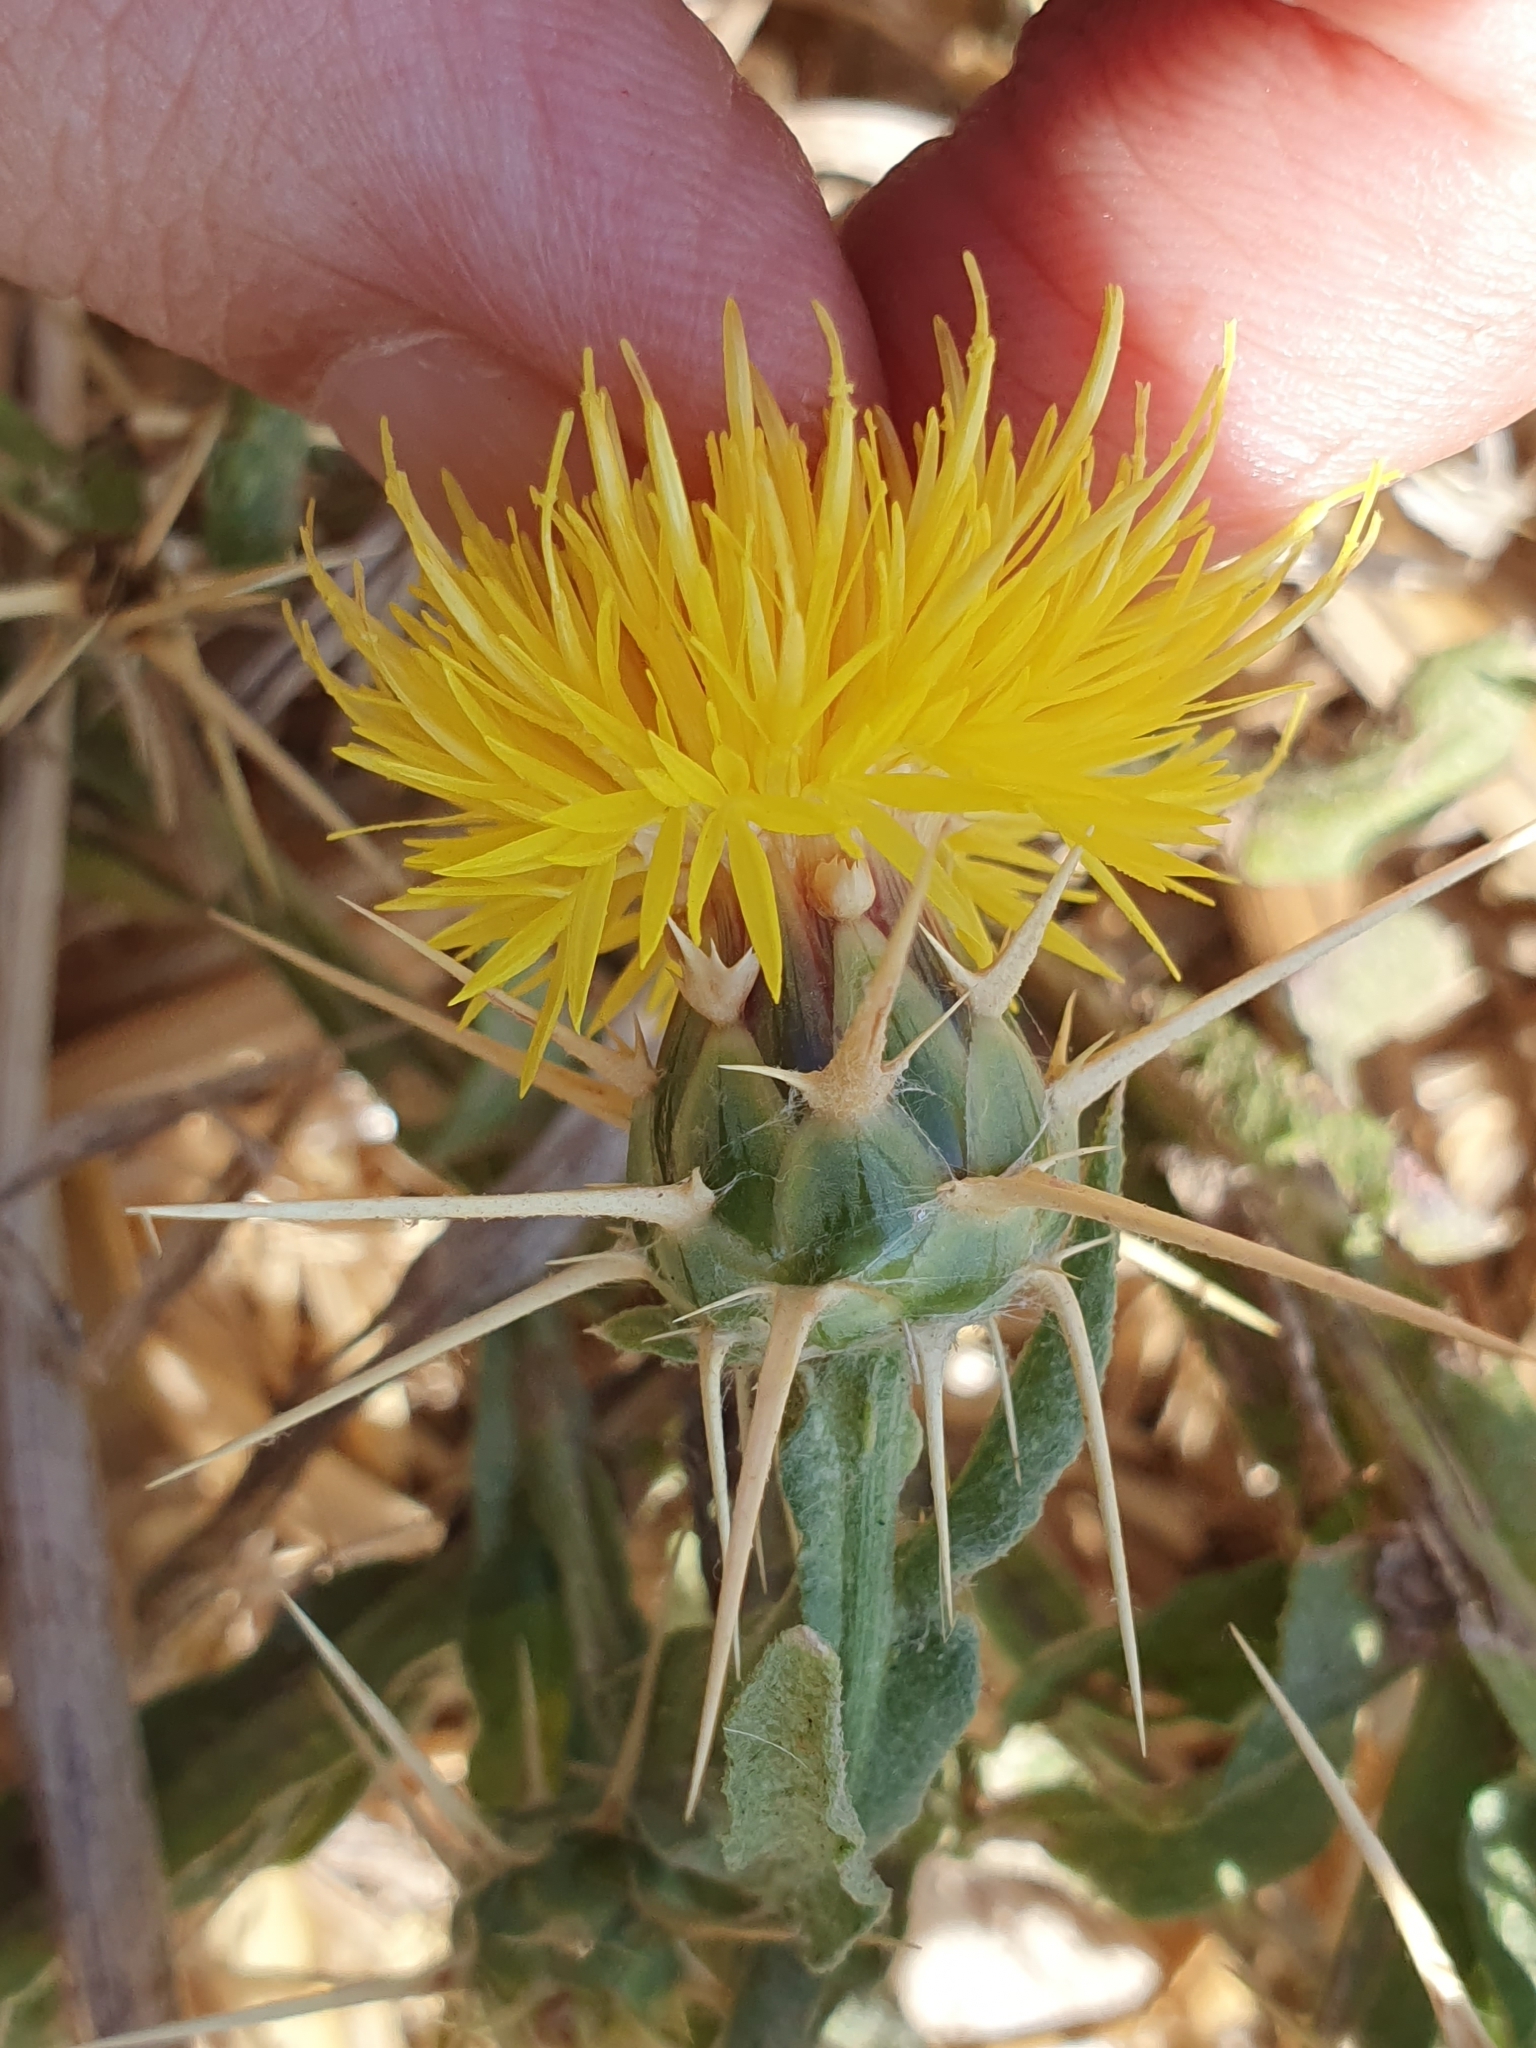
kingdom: Plantae
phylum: Tracheophyta
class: Magnoliopsida
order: Asterales
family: Asteraceae
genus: Centaurea
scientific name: Centaurea solstitialis
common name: Yellow star-thistle
